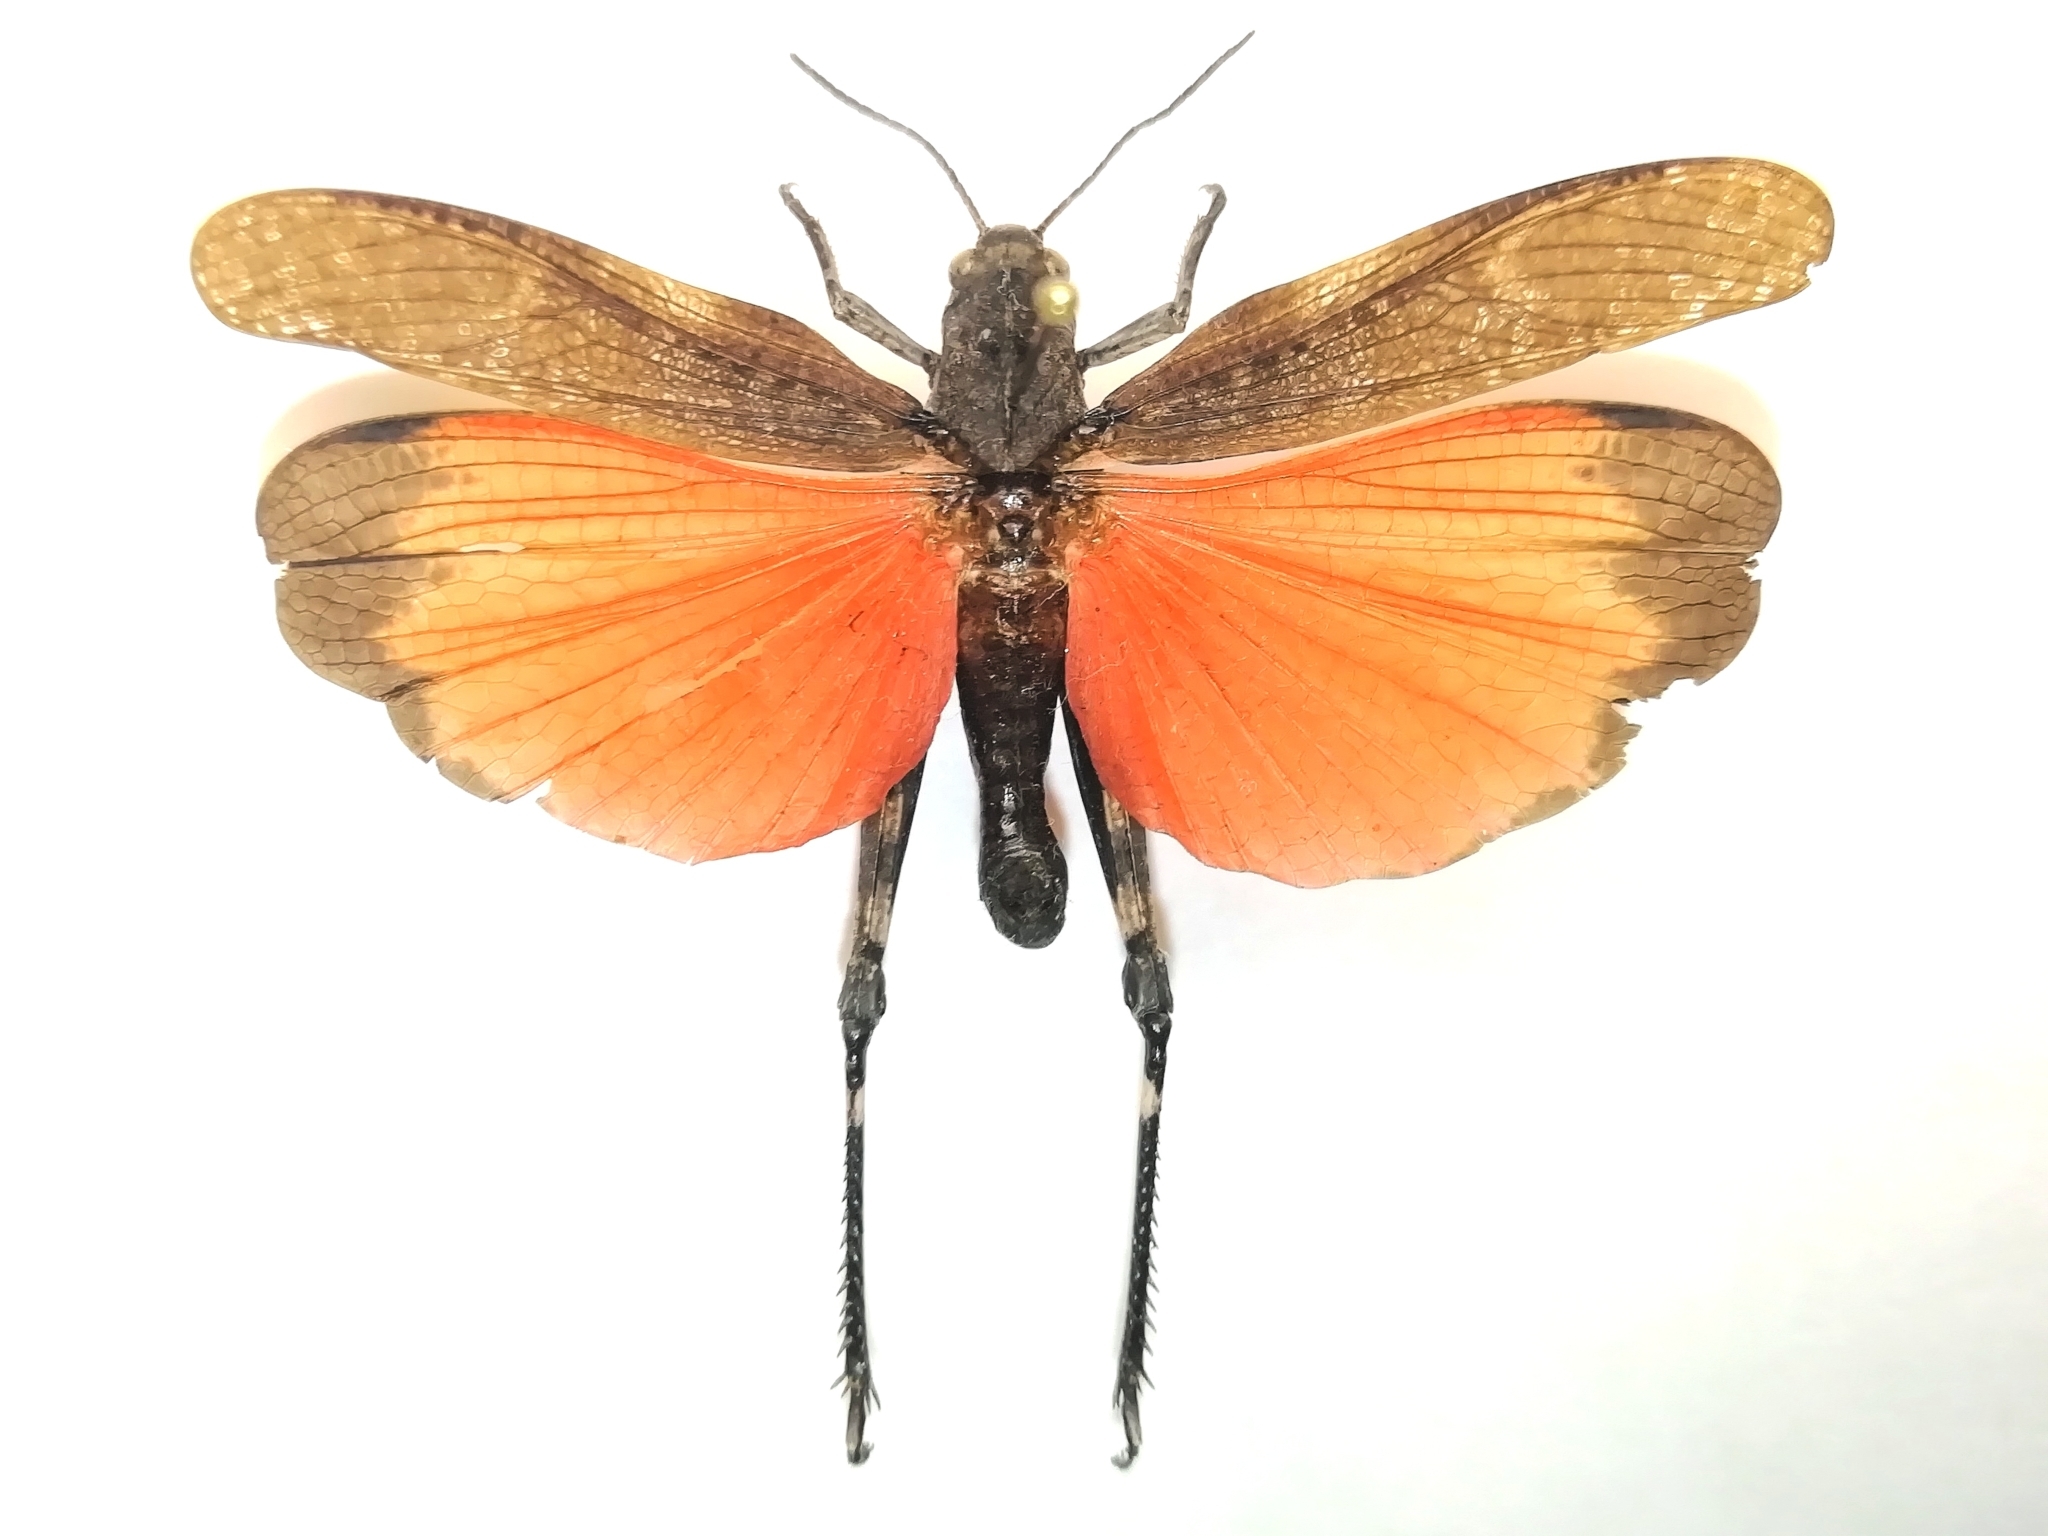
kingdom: Animalia
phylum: Arthropoda
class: Insecta
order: Orthoptera
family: Acrididae
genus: Psophus
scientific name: Psophus stridulus
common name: Rattle grasshopper
